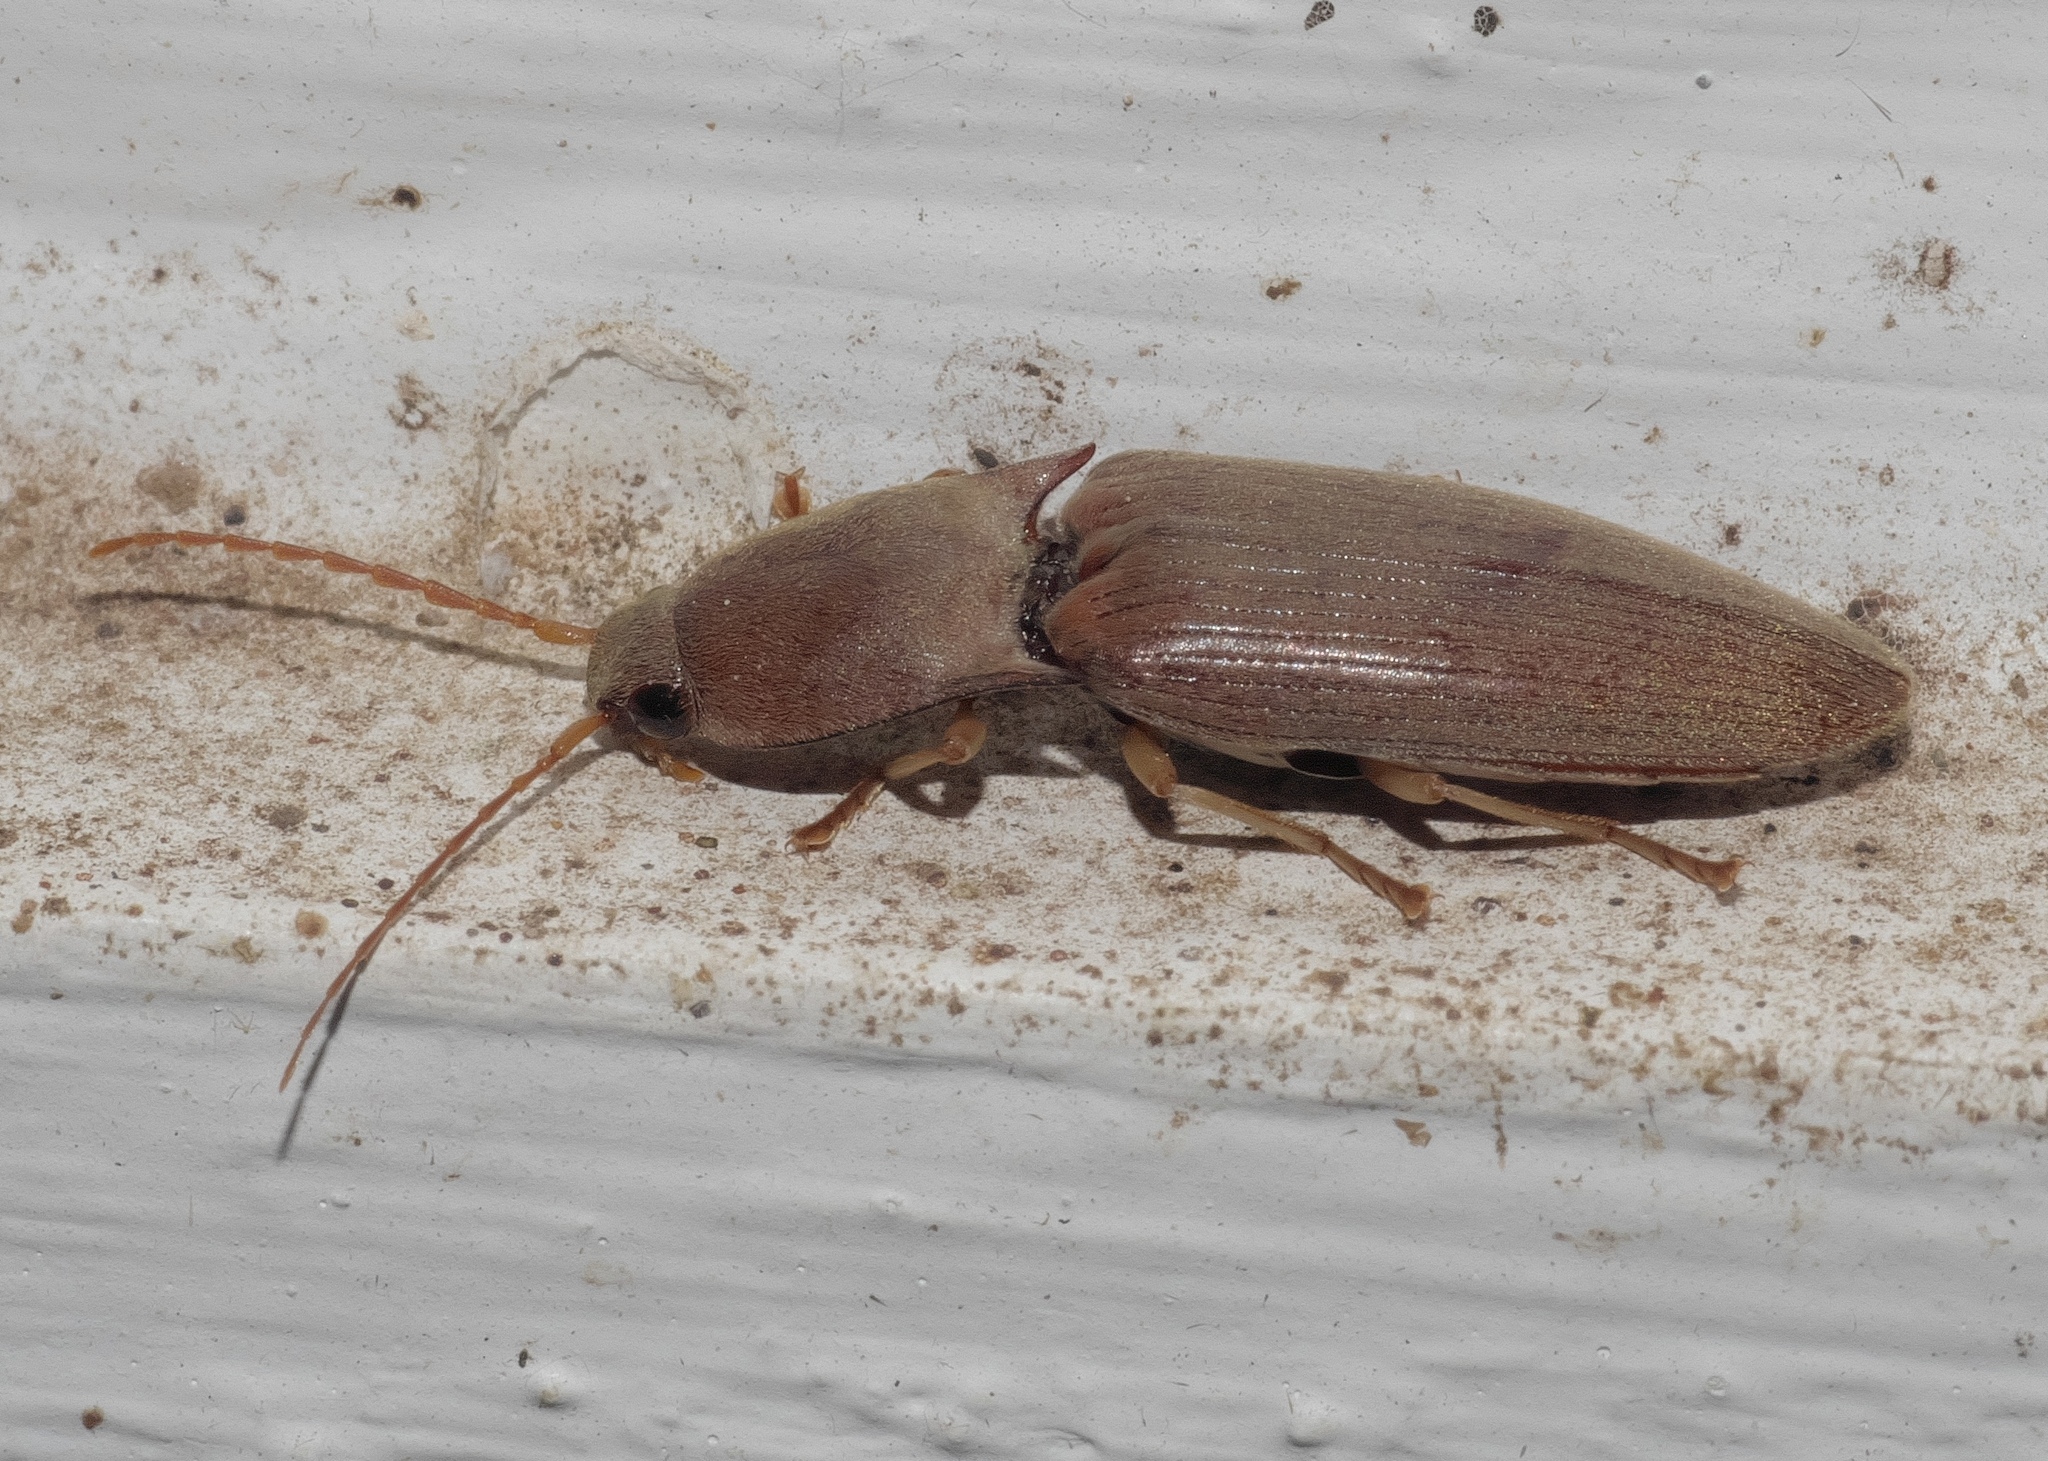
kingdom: Animalia
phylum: Arthropoda
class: Insecta
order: Coleoptera
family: Elateridae
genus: Monocrepidius
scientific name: Monocrepidius lividus
